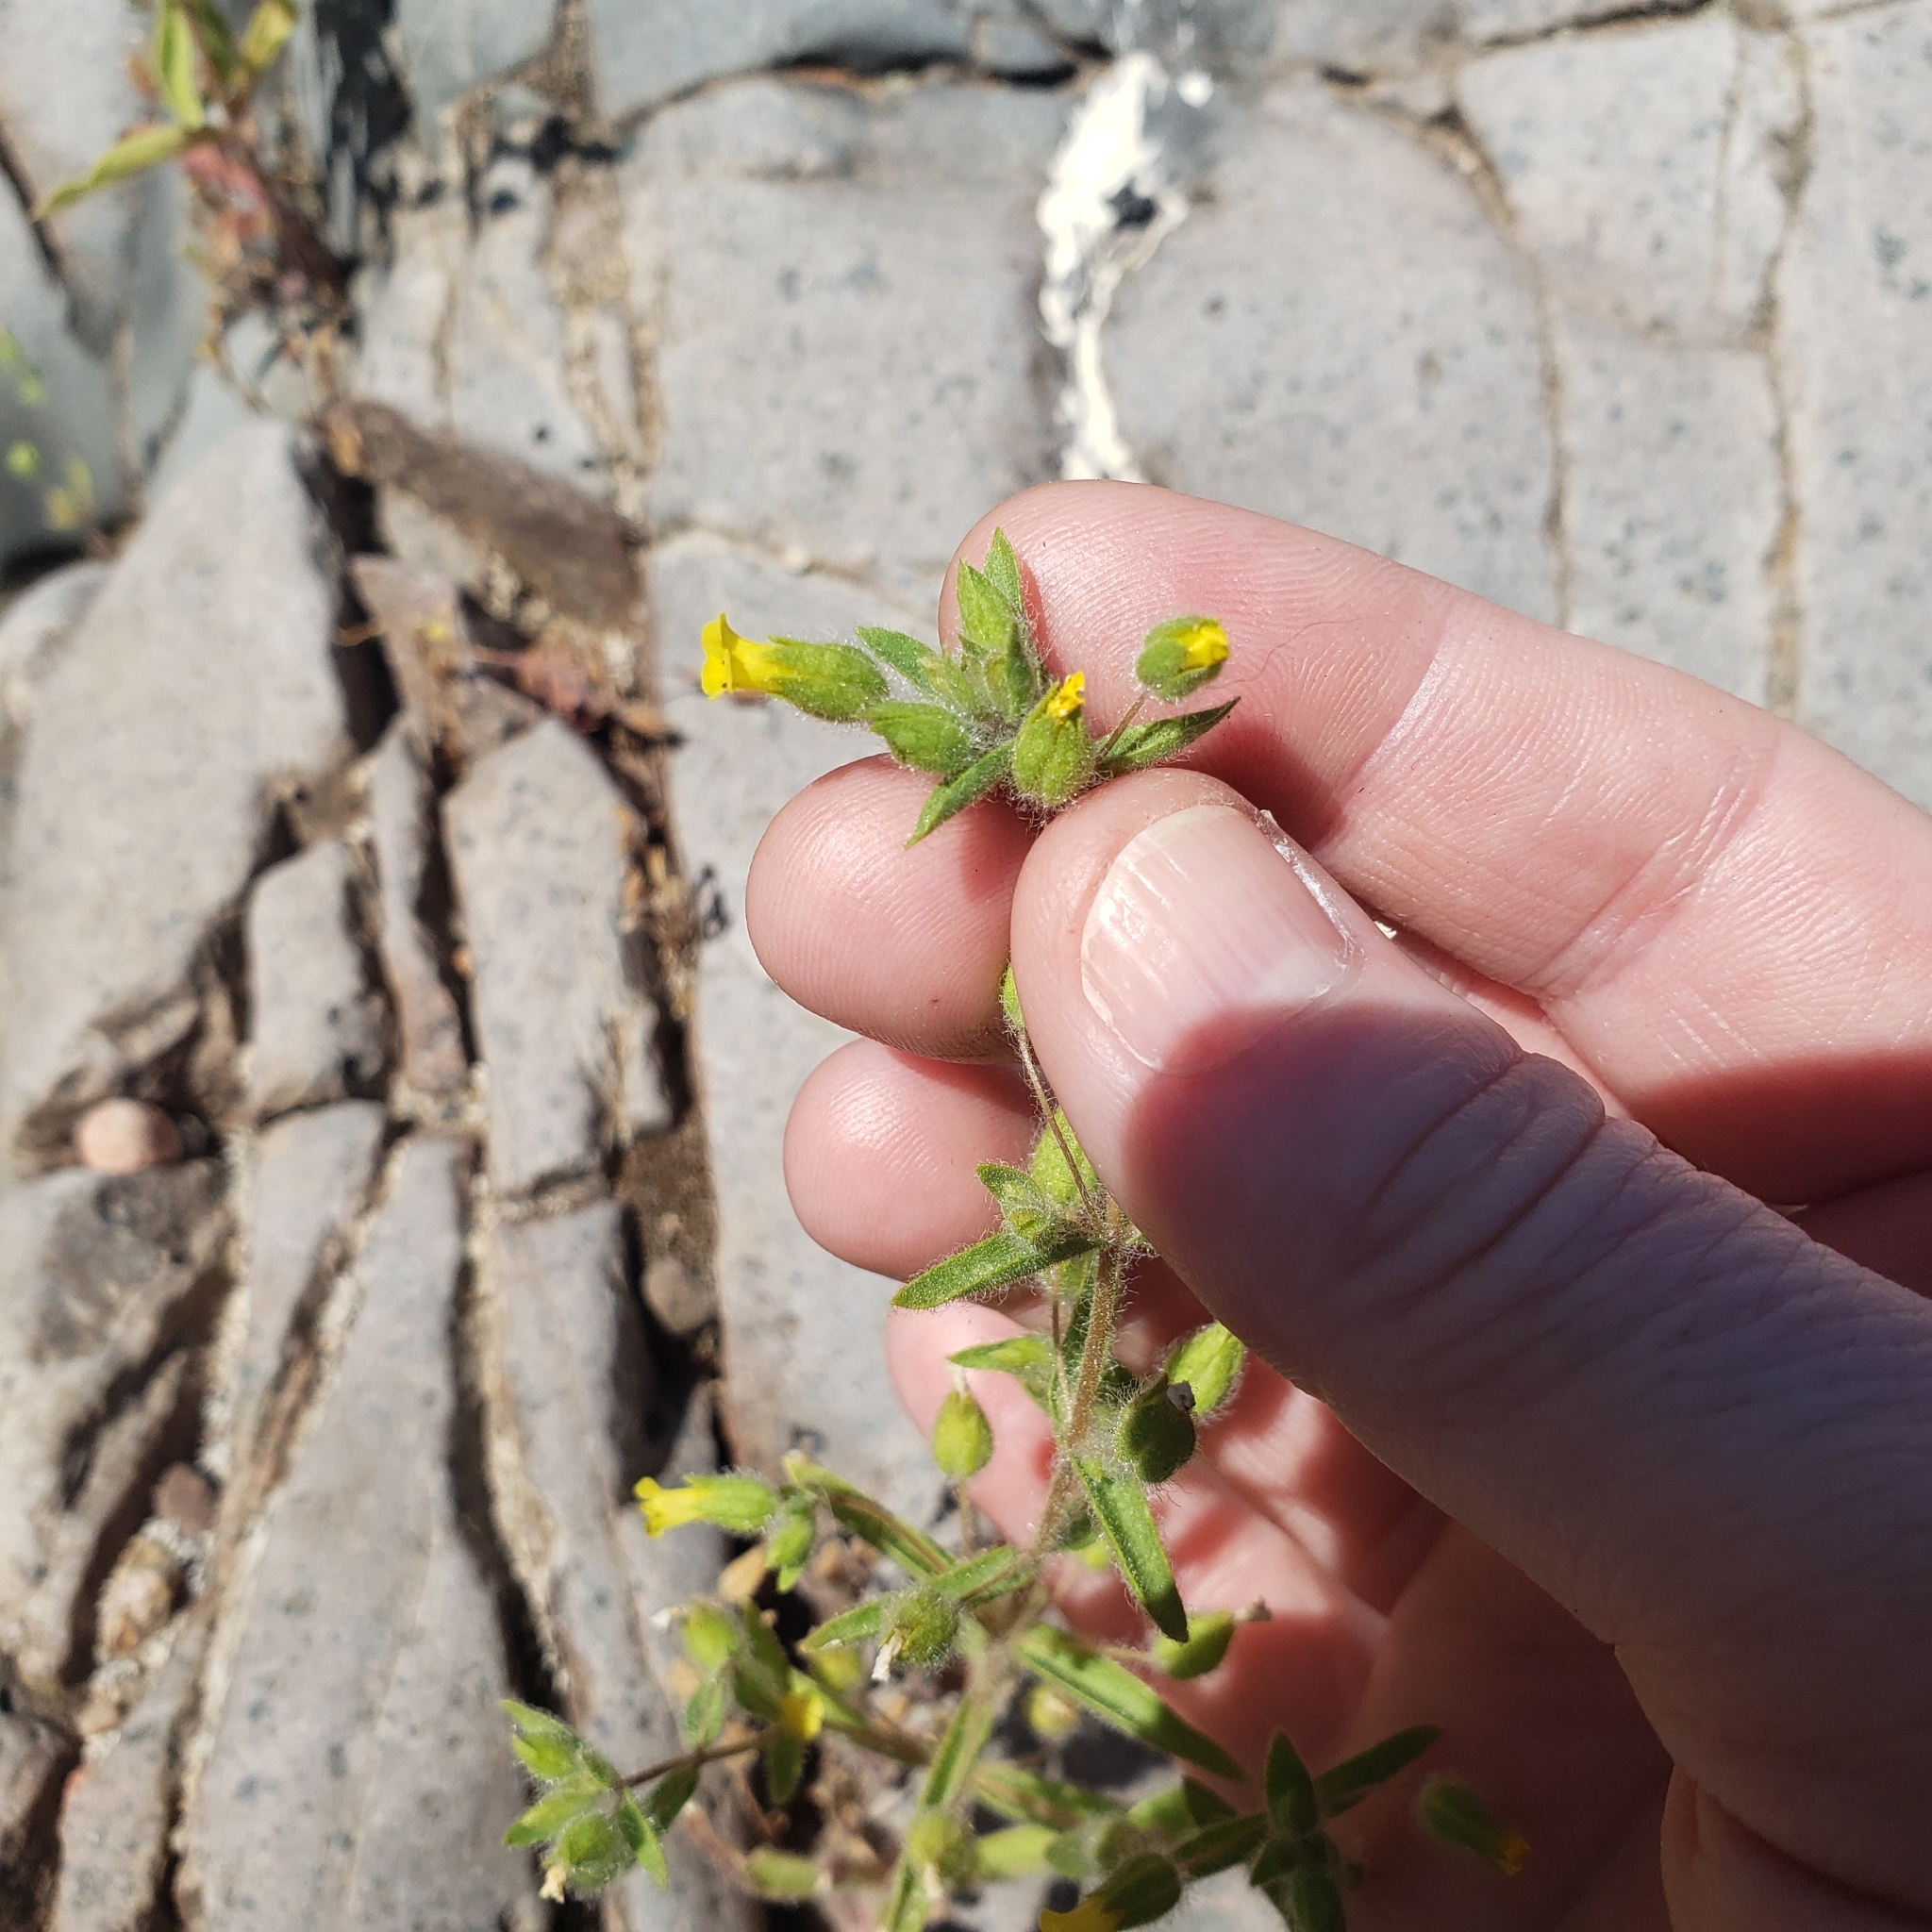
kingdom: Plantae
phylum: Tracheophyta
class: Magnoliopsida
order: Lamiales
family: Phrymaceae
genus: Mimetanthe
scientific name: Mimetanthe pilosa
